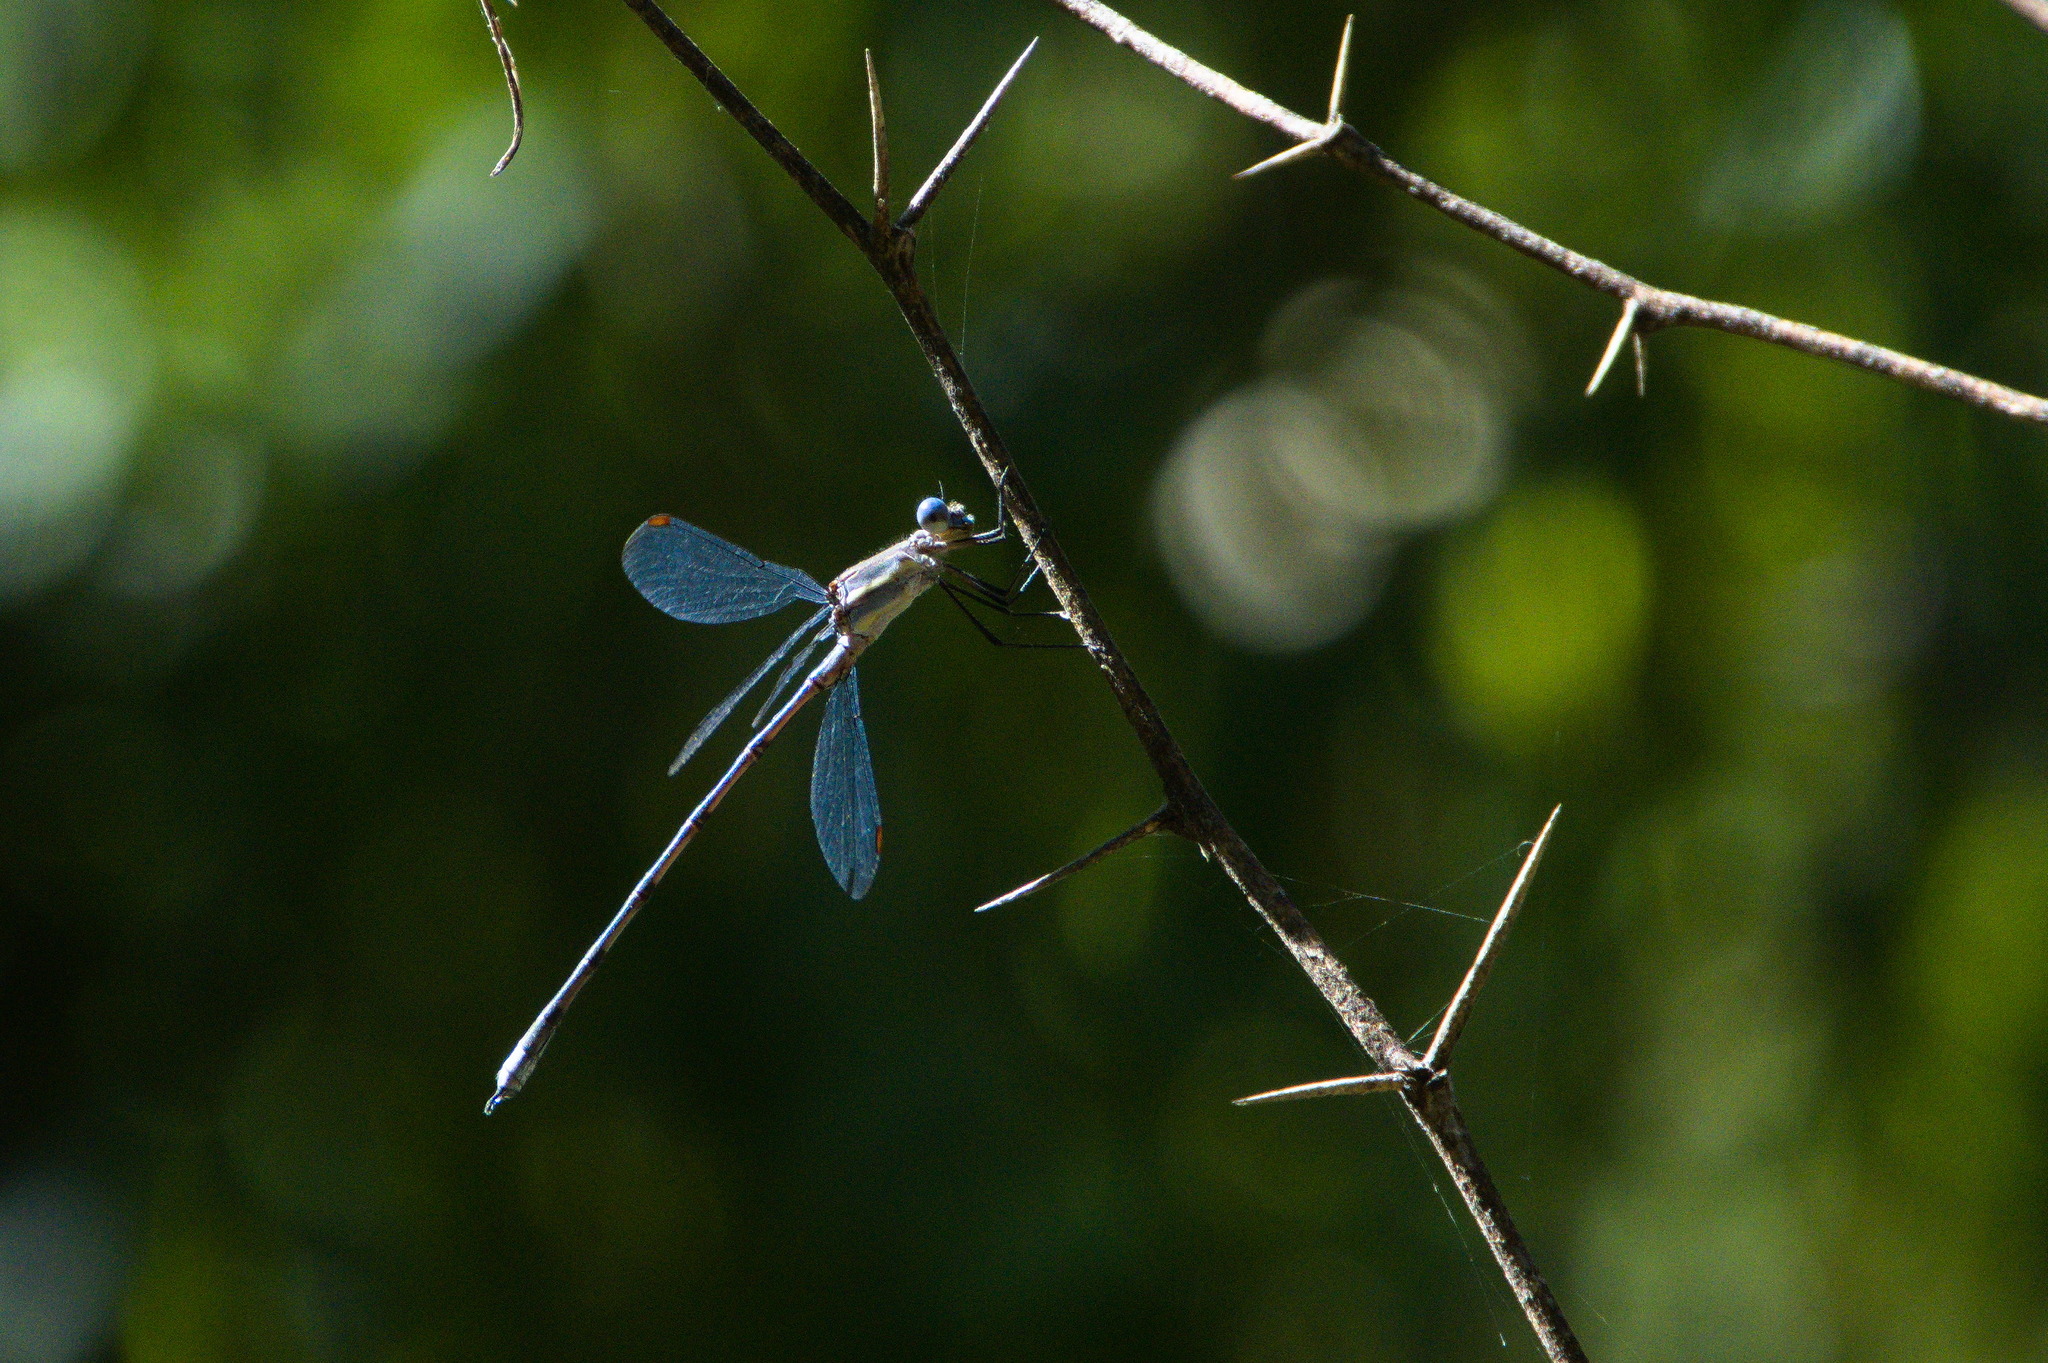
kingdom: Animalia
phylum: Arthropoda
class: Insecta
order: Odonata
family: Lestidae
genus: Archilestes
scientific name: Archilestes grandis
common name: Great spreadwing
